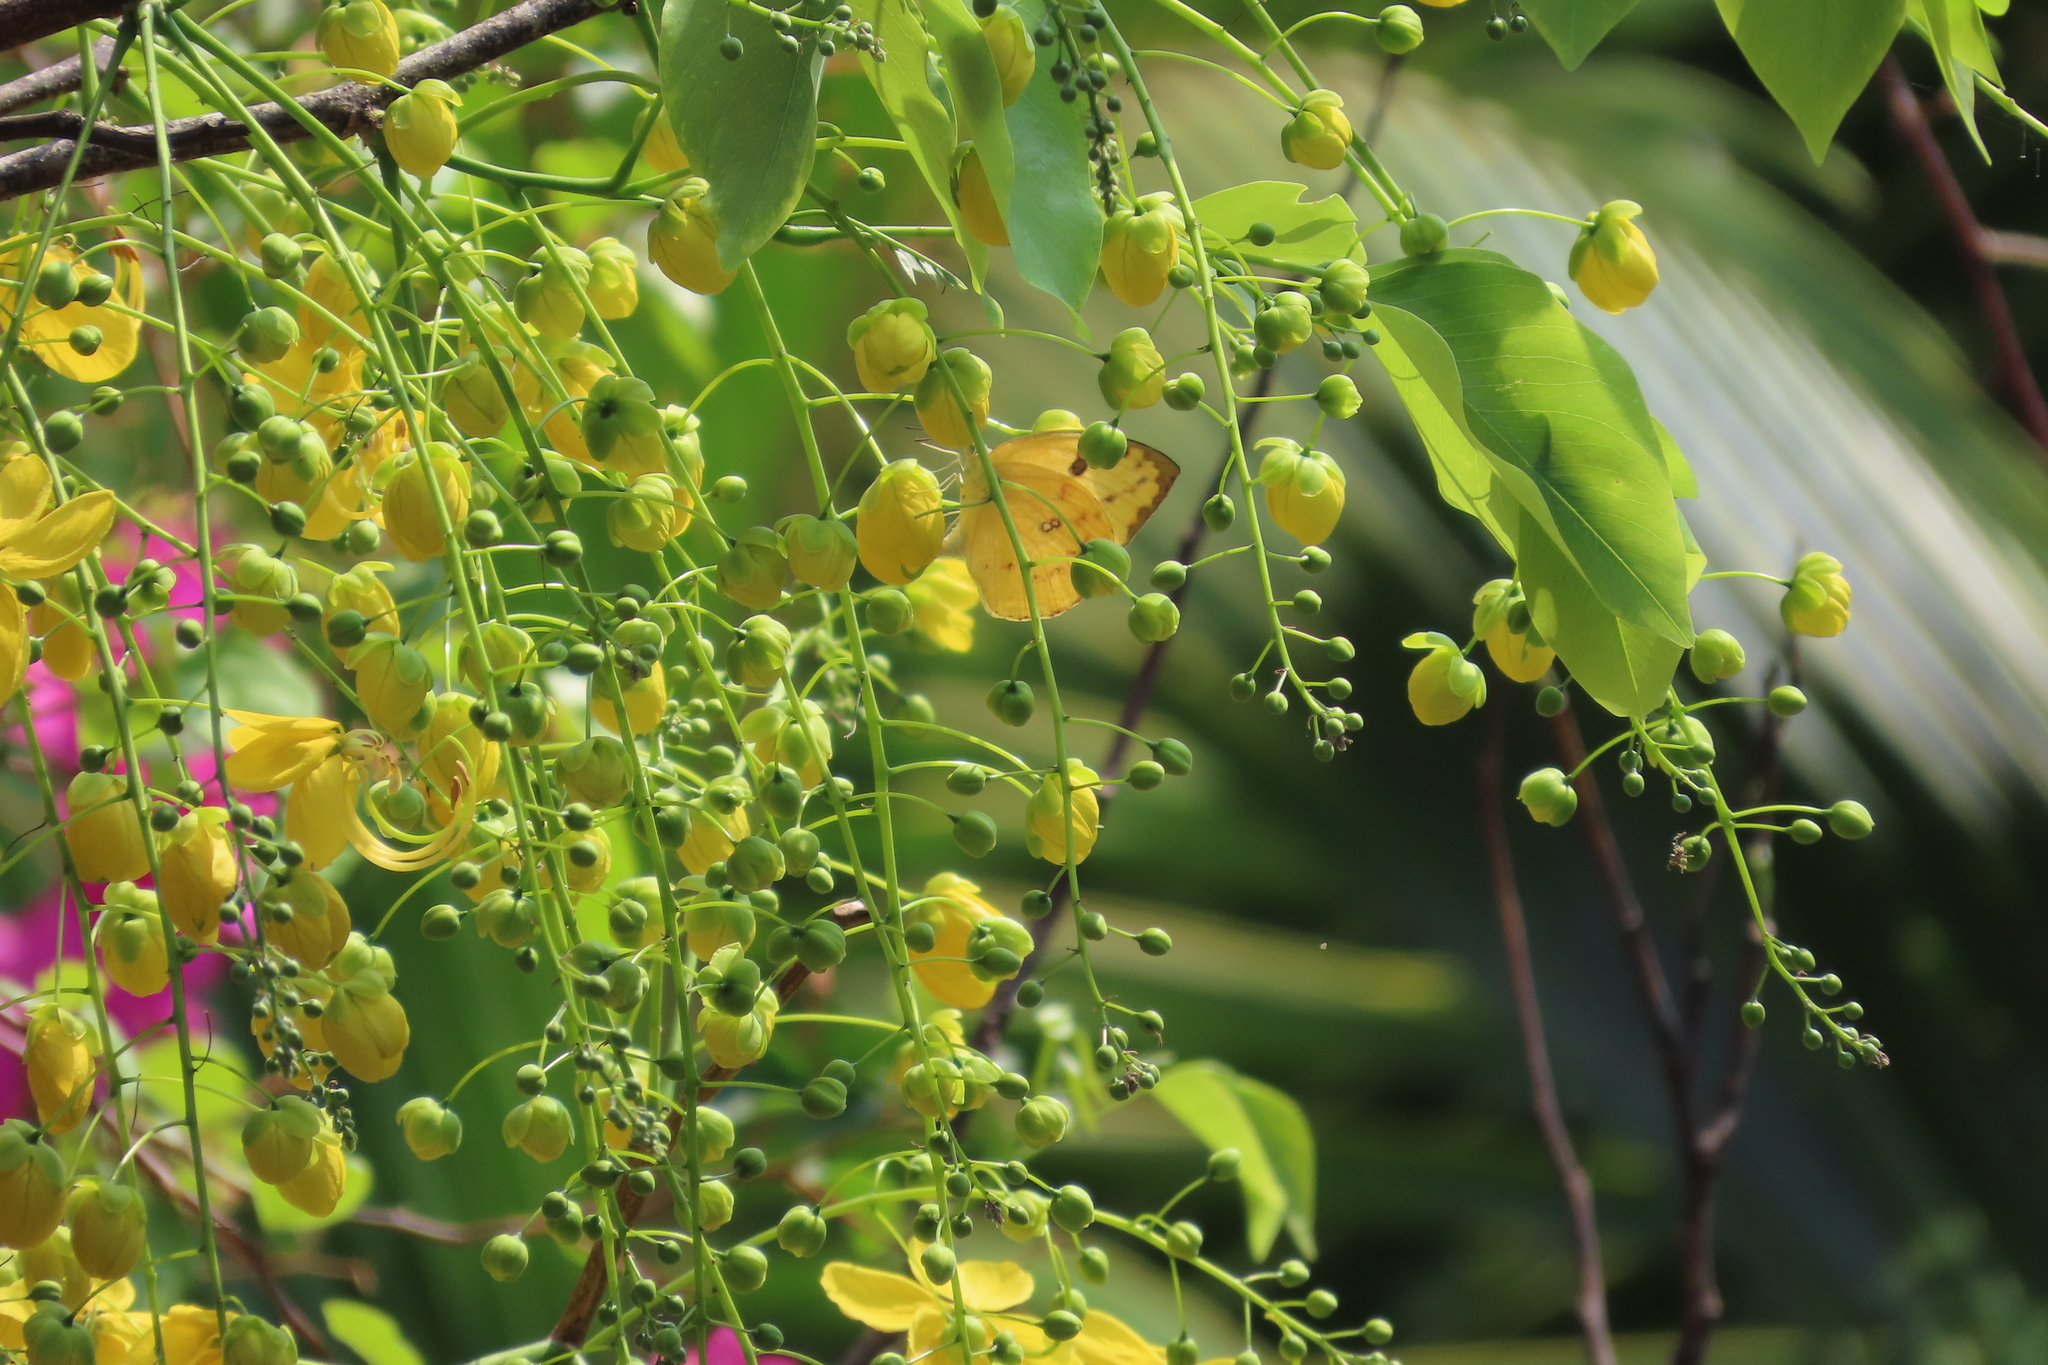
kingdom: Animalia
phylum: Arthropoda
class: Insecta
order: Lepidoptera
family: Pieridae
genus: Catopsilia
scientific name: Catopsilia pomona
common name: Common emigrant
